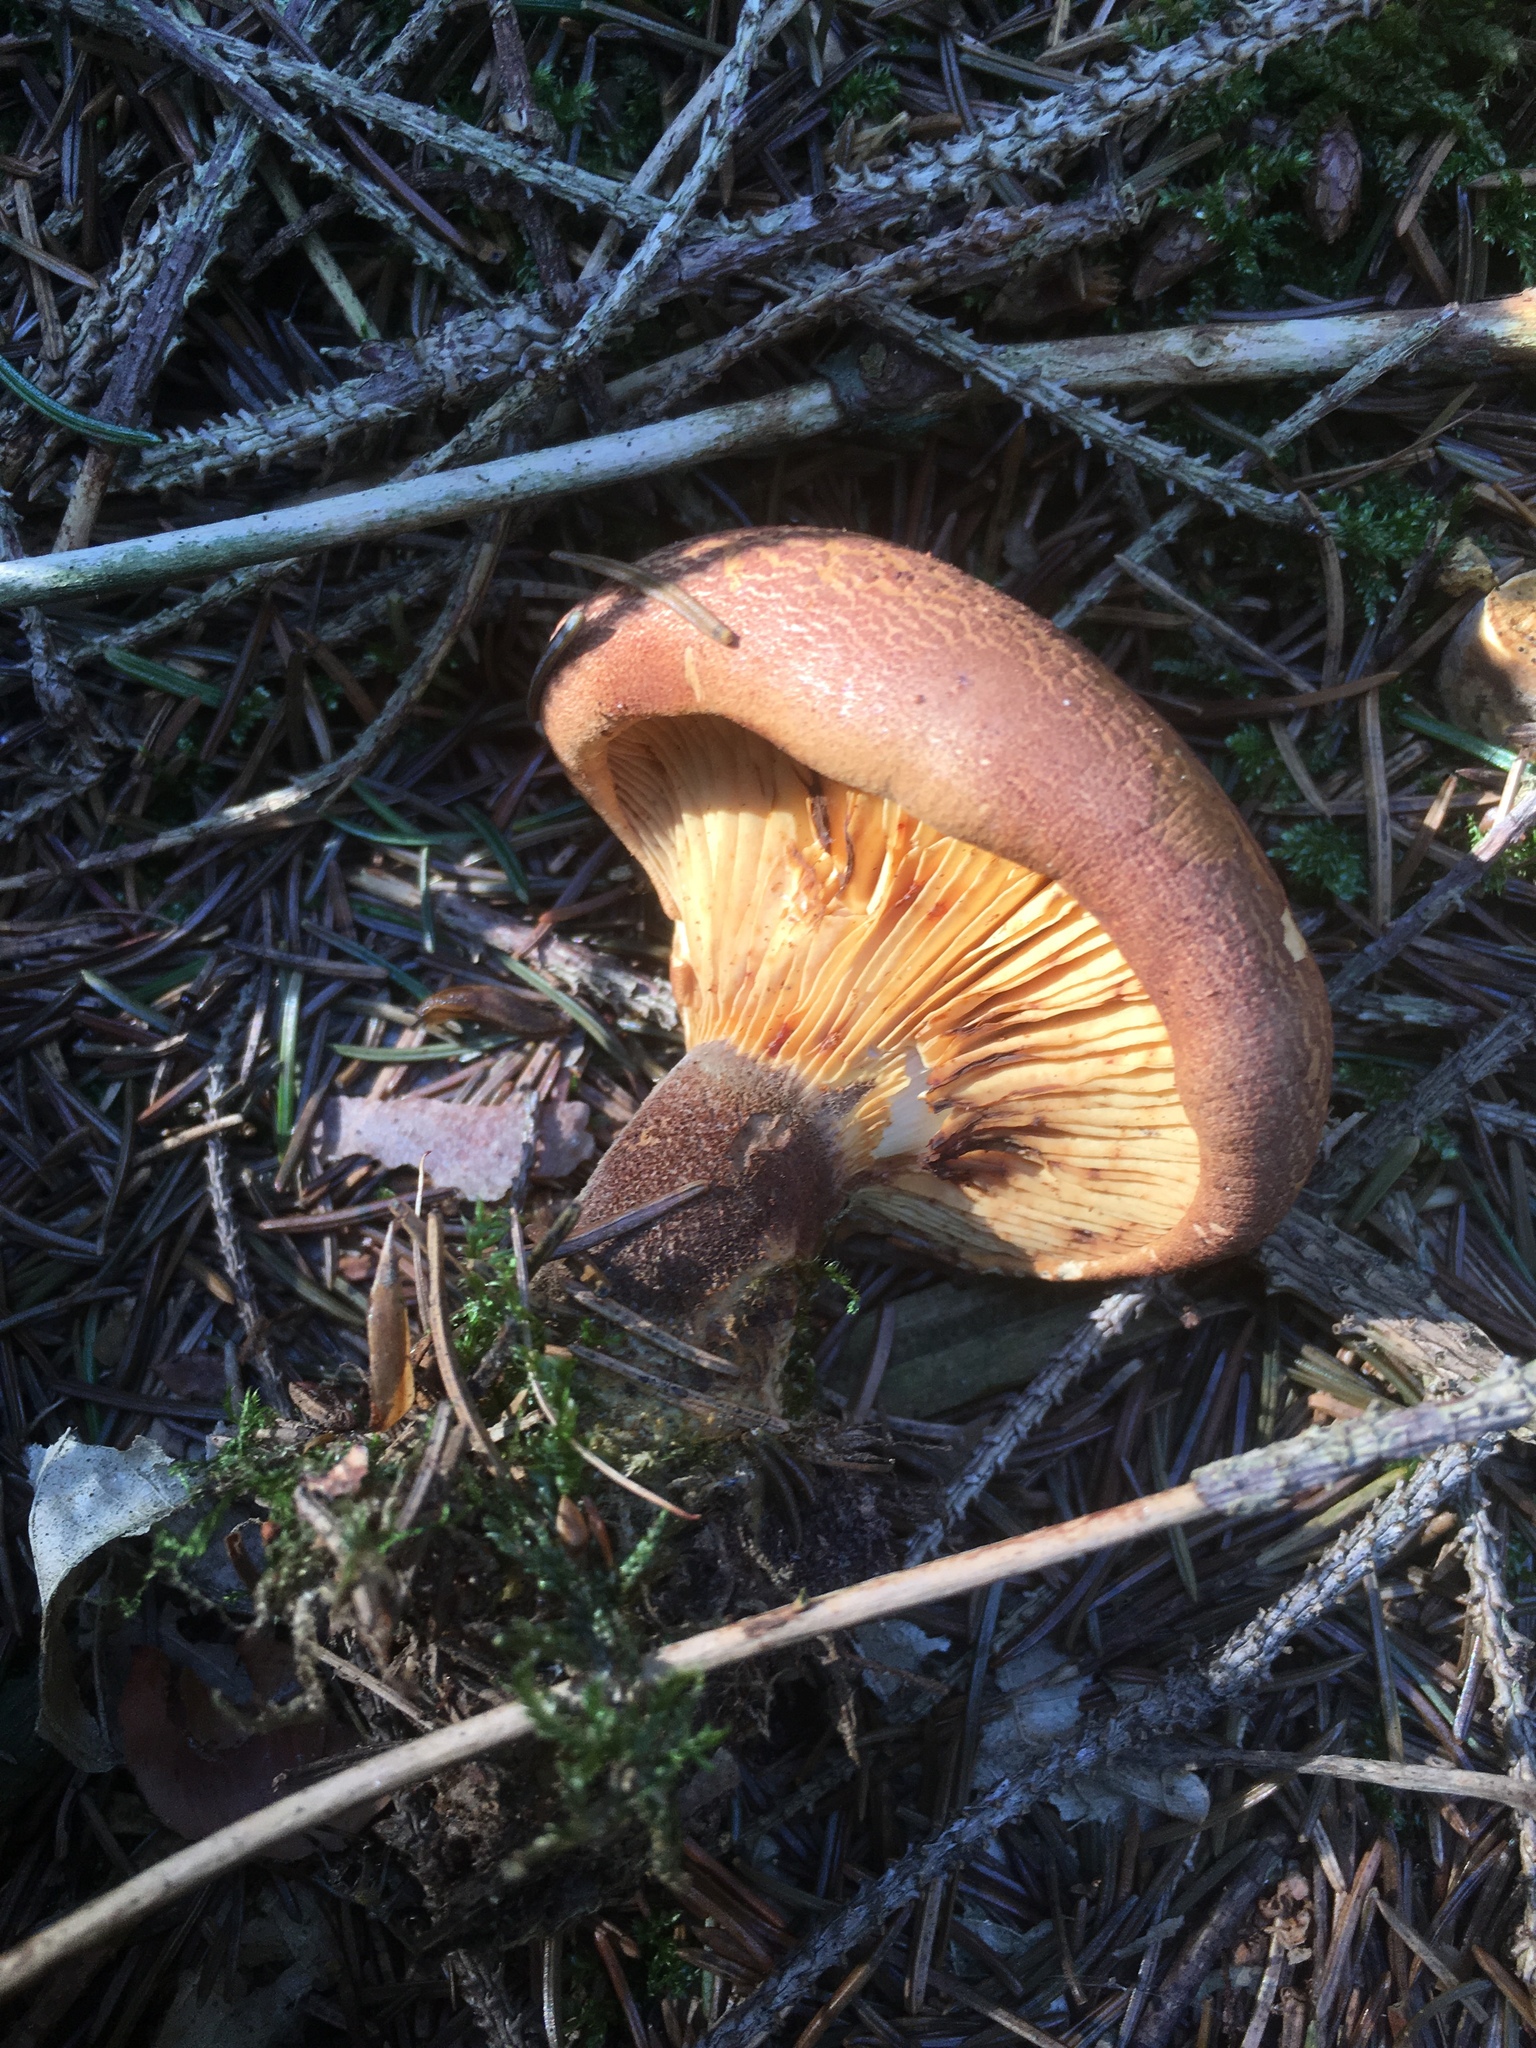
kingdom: Fungi
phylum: Basidiomycota
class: Agaricomycetes
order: Boletales
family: Tapinellaceae
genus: Tapinella
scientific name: Tapinella atrotomentosa
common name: Velvet rollrim
